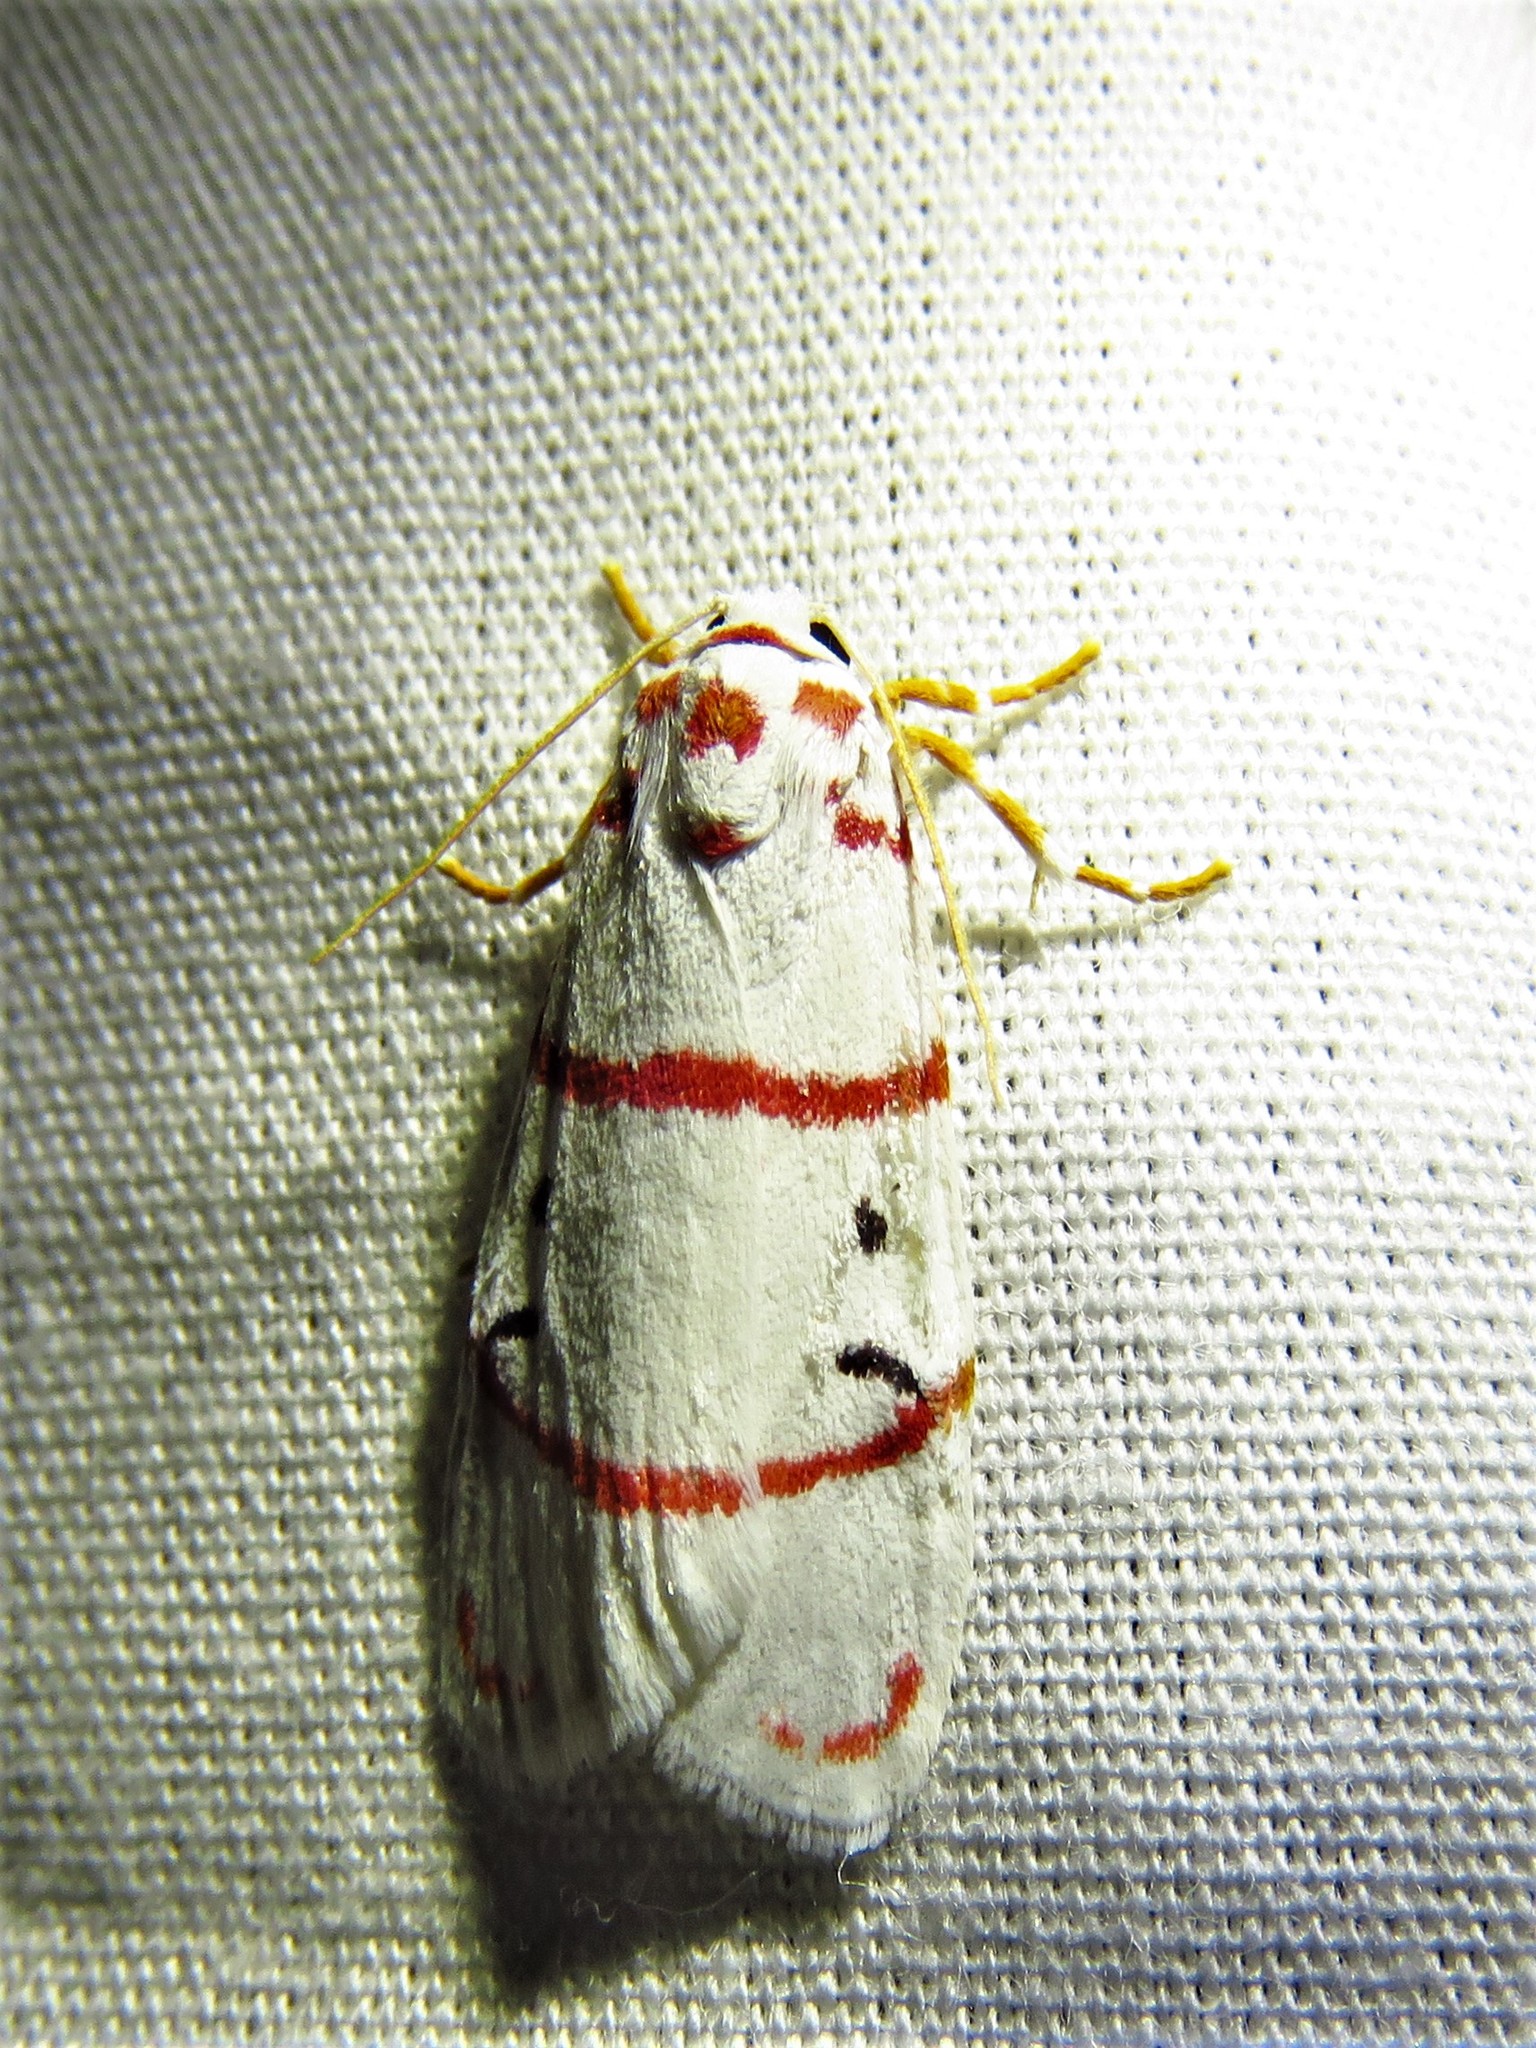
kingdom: Animalia
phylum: Arthropoda
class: Insecta
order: Lepidoptera
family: Erebidae
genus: Cyana
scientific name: Cyana pretoriae
